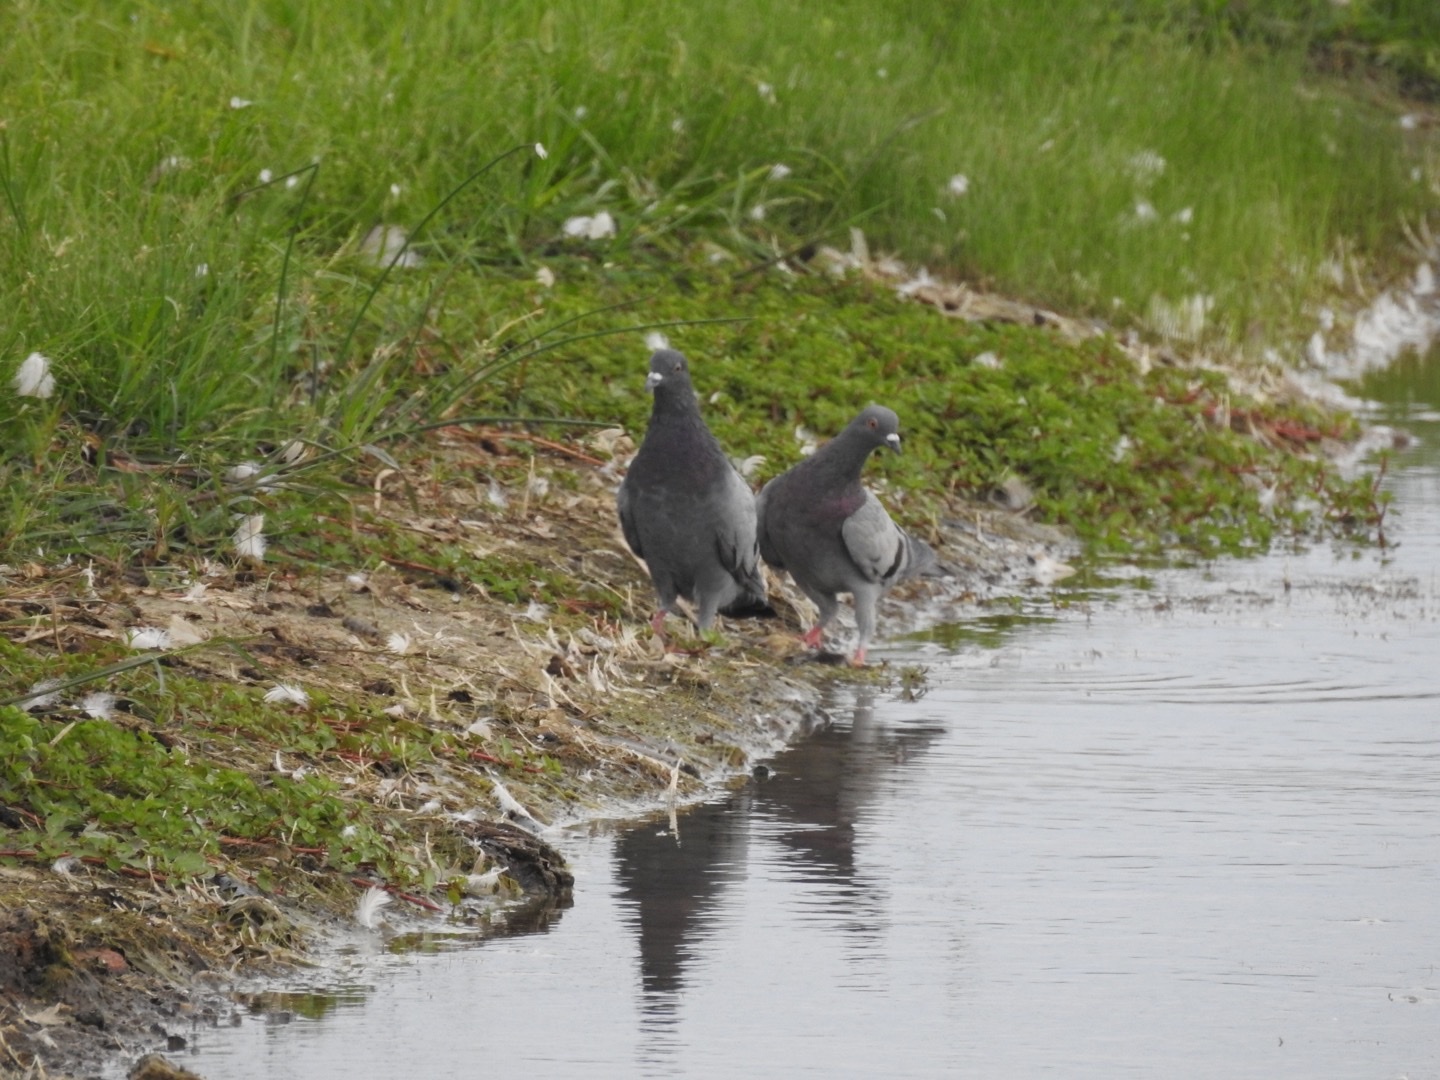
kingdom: Animalia
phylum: Chordata
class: Aves
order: Columbiformes
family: Columbidae
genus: Columba
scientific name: Columba livia
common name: Rock pigeon
